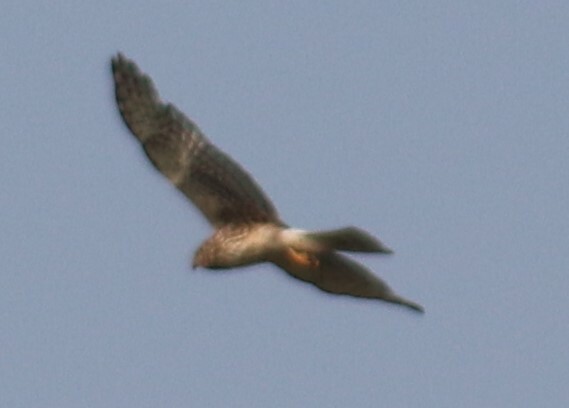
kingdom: Animalia
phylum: Chordata
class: Aves
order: Accipitriformes
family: Accipitridae
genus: Circus
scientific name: Circus cyaneus
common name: Hen harrier
